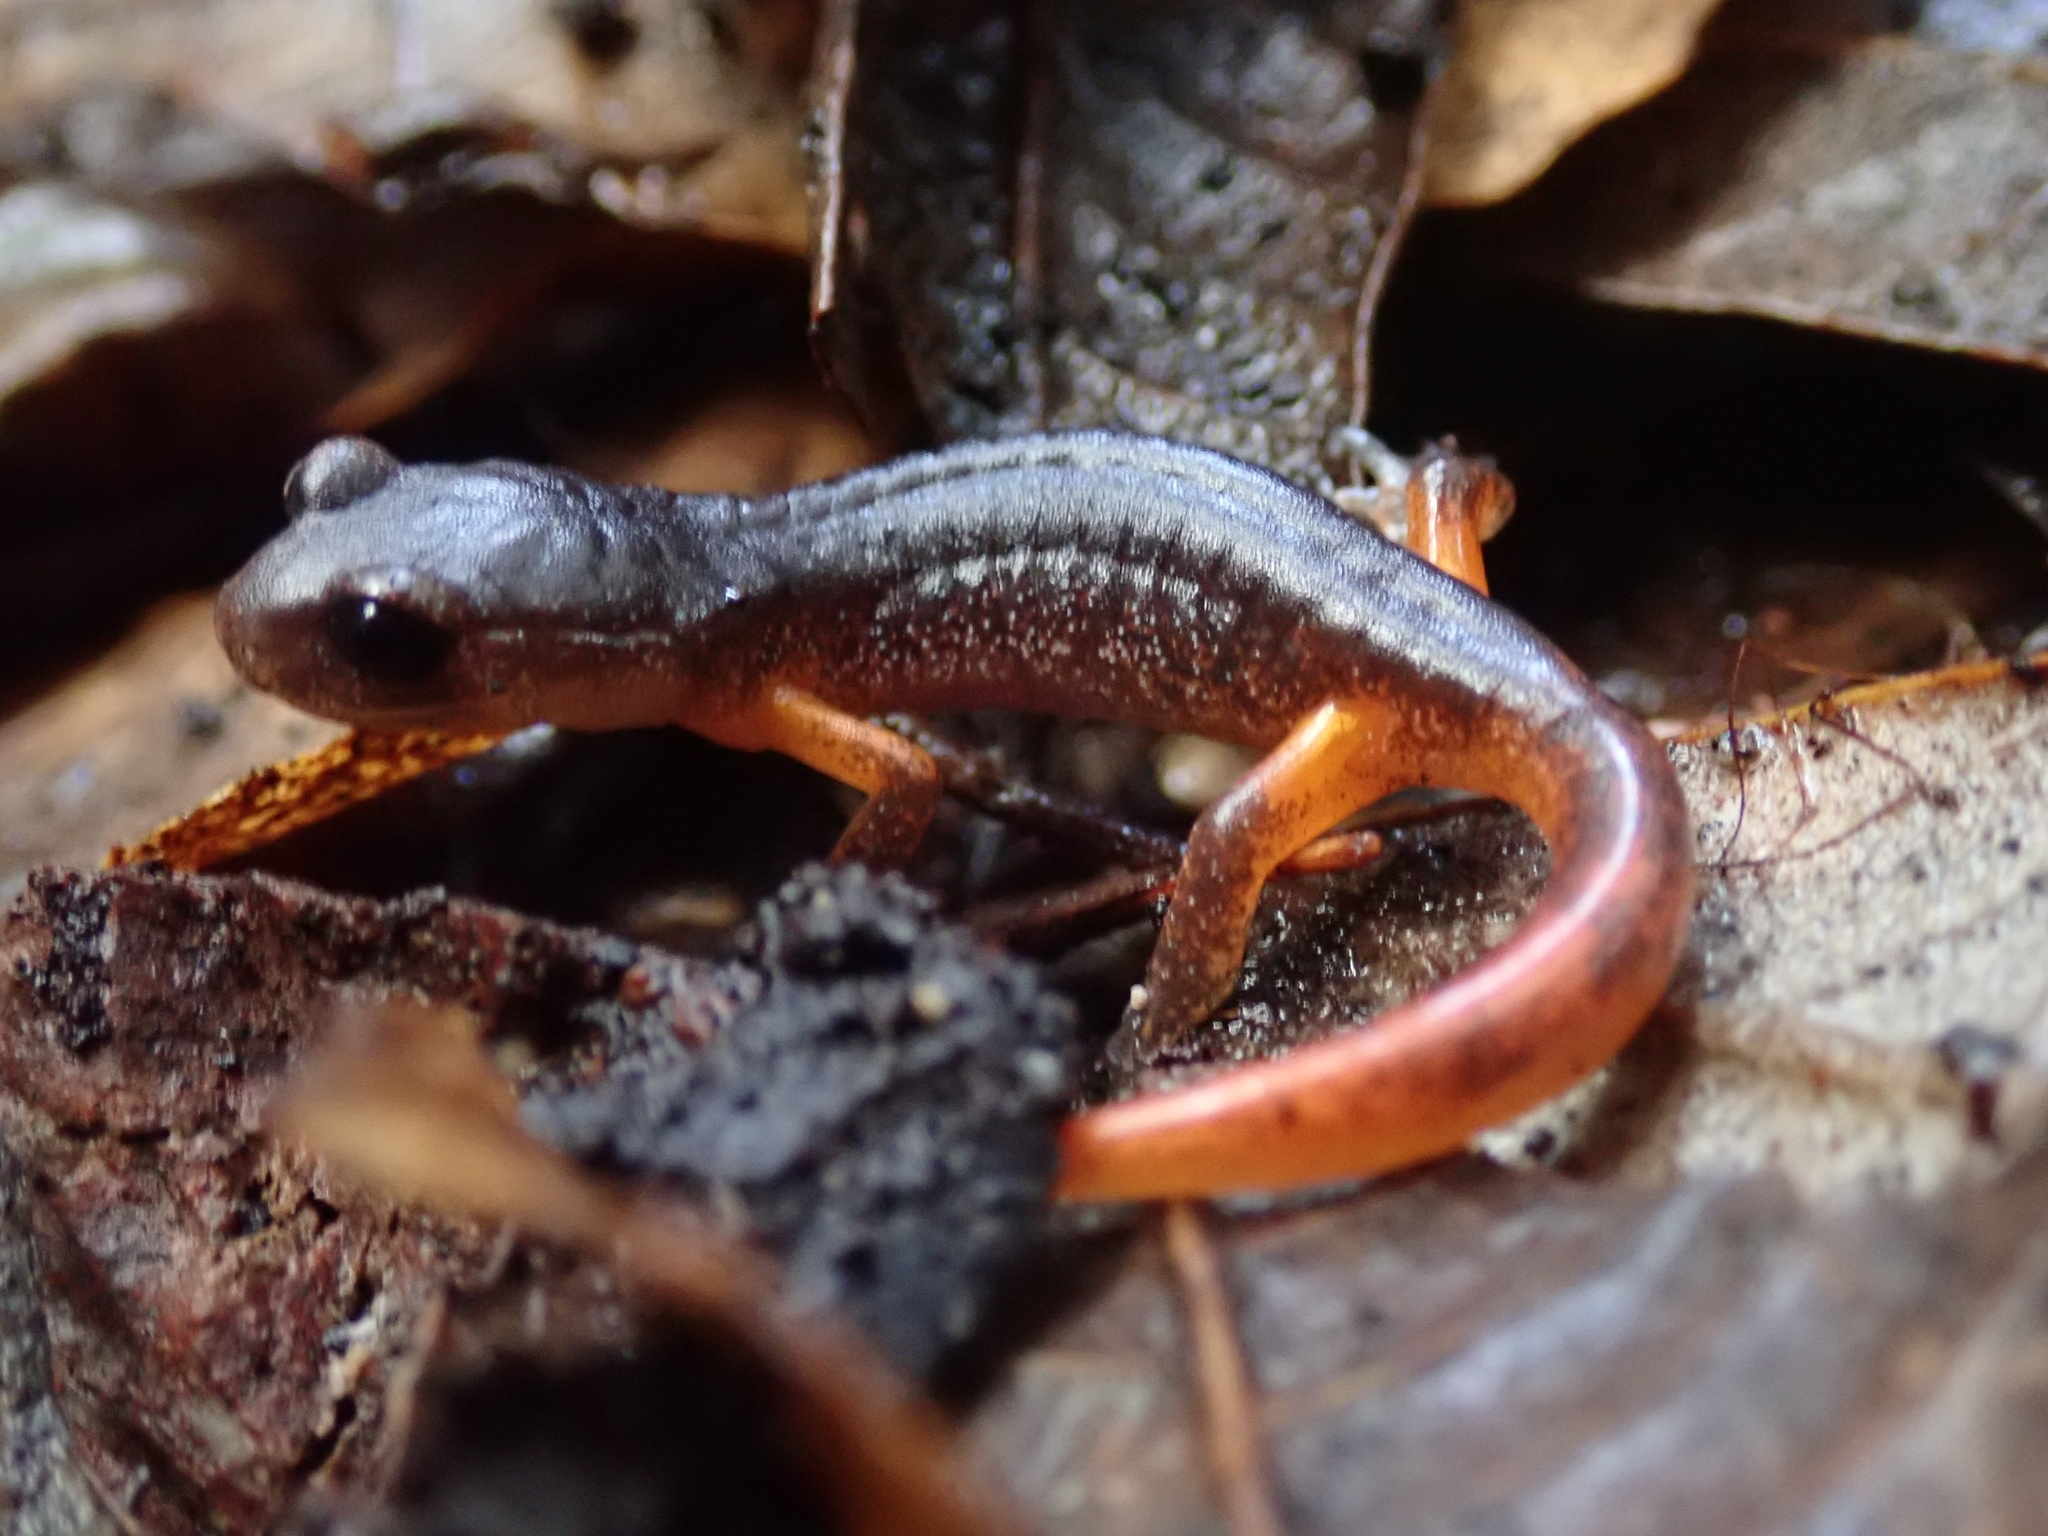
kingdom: Animalia
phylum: Chordata
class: Amphibia
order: Caudata
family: Plethodontidae
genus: Ensatina
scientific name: Ensatina eschscholtzii
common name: Ensatina
